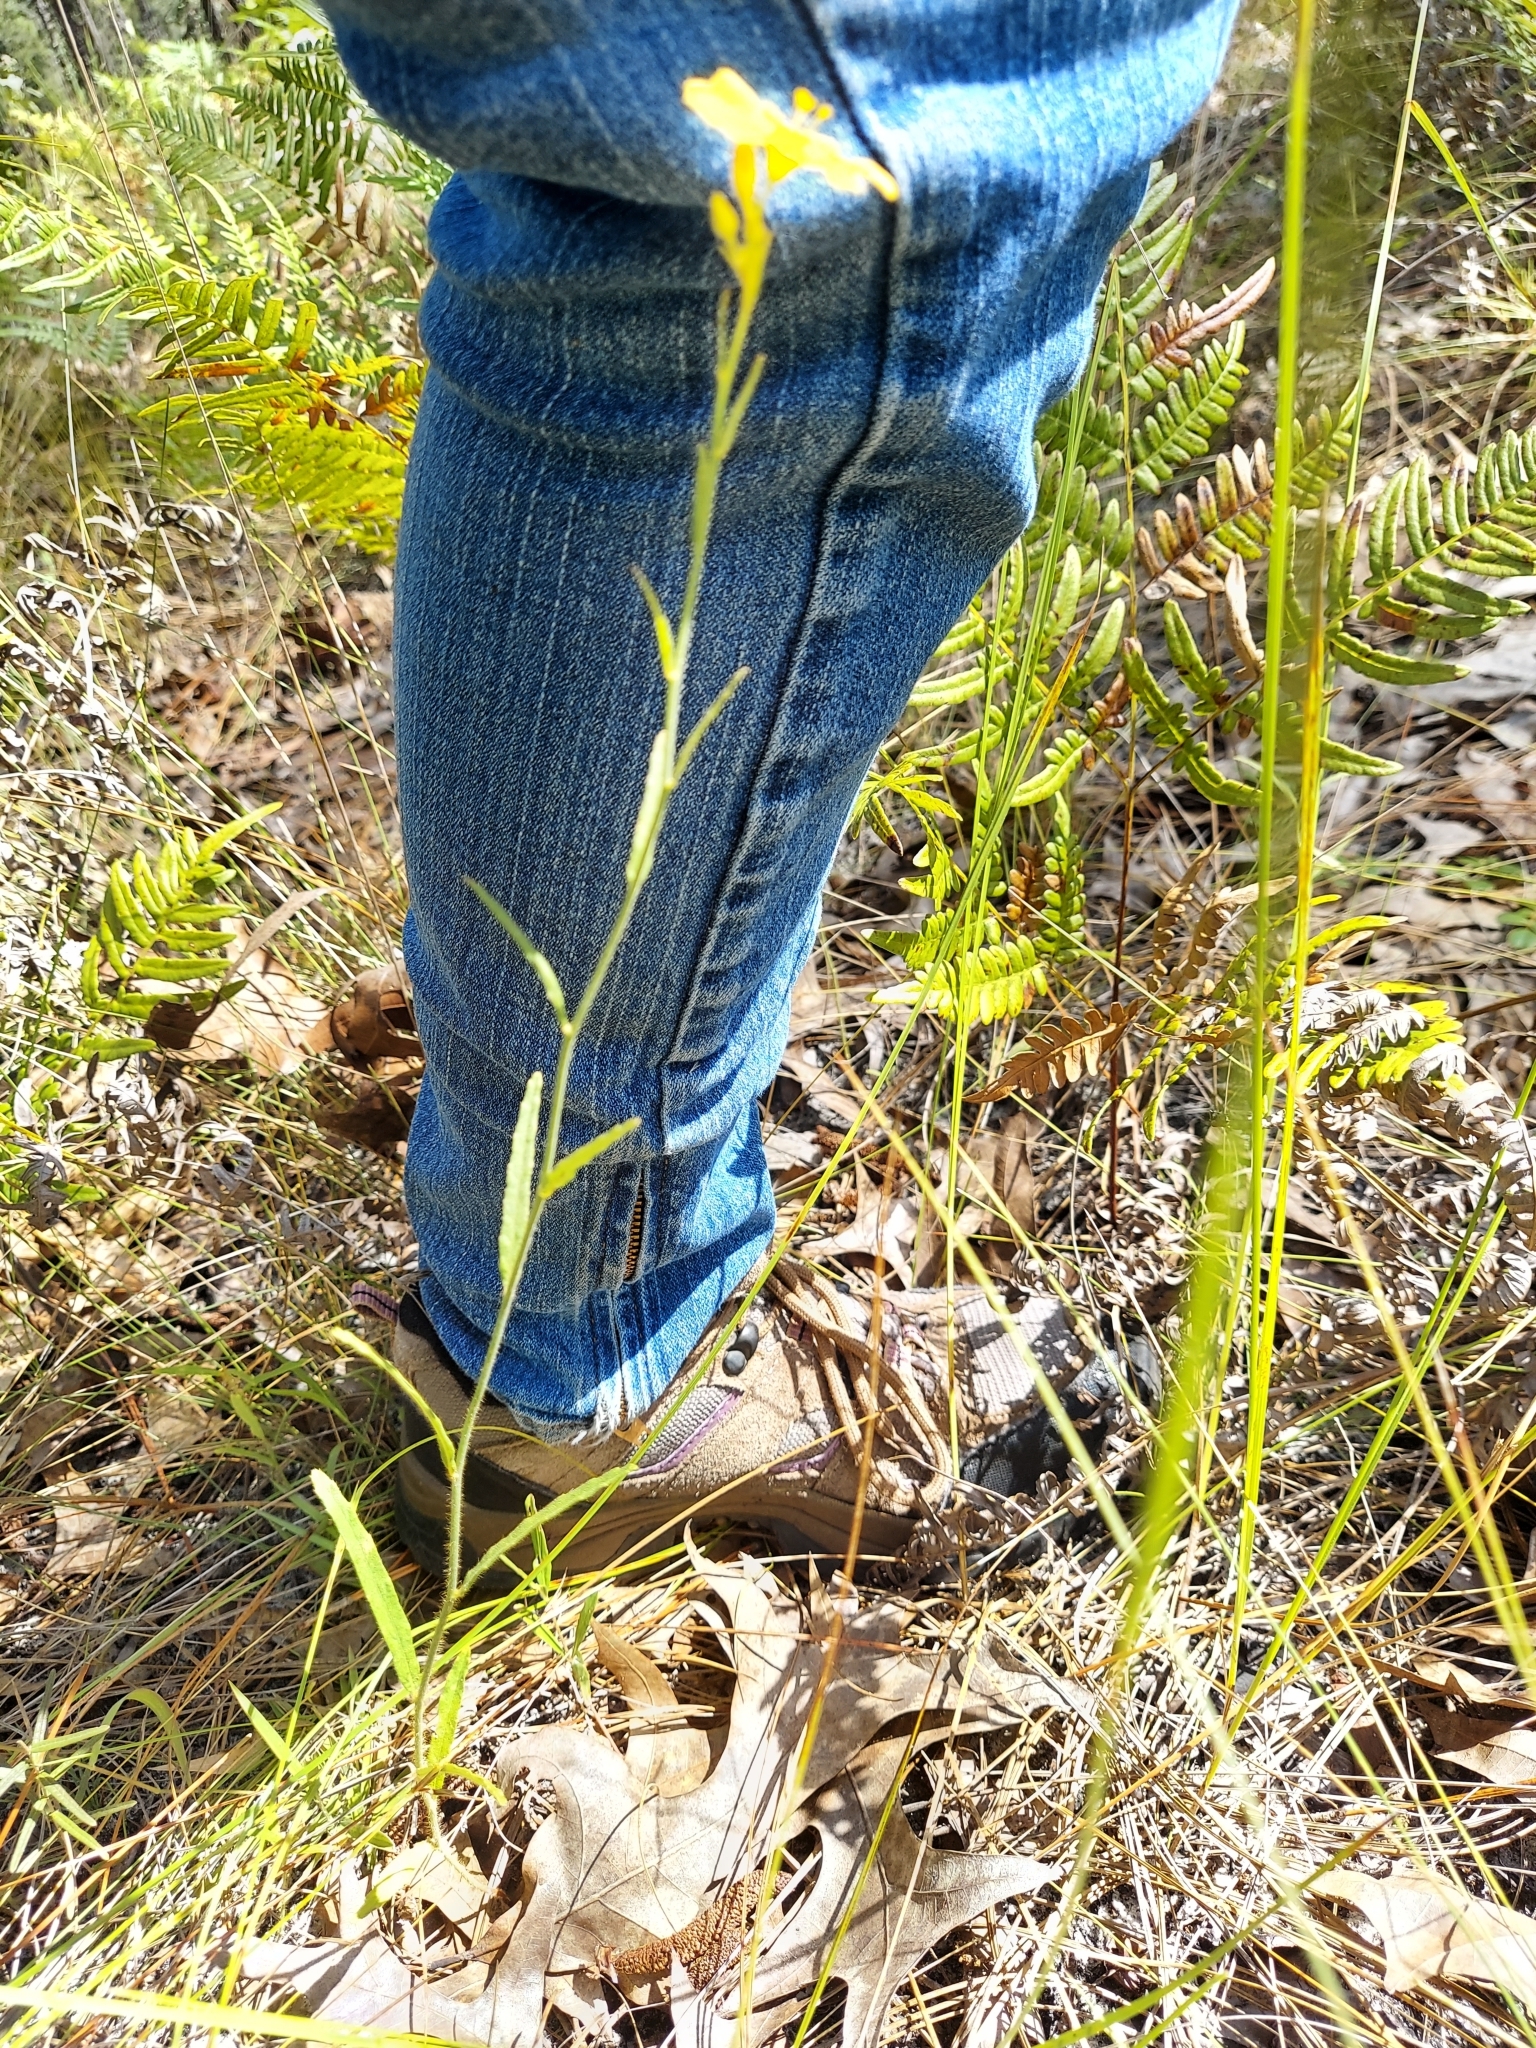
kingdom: Plantae
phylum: Tracheophyta
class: Magnoliopsida
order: Malpighiales
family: Turneraceae
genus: Piriqueta
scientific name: Piriqueta cistoides
